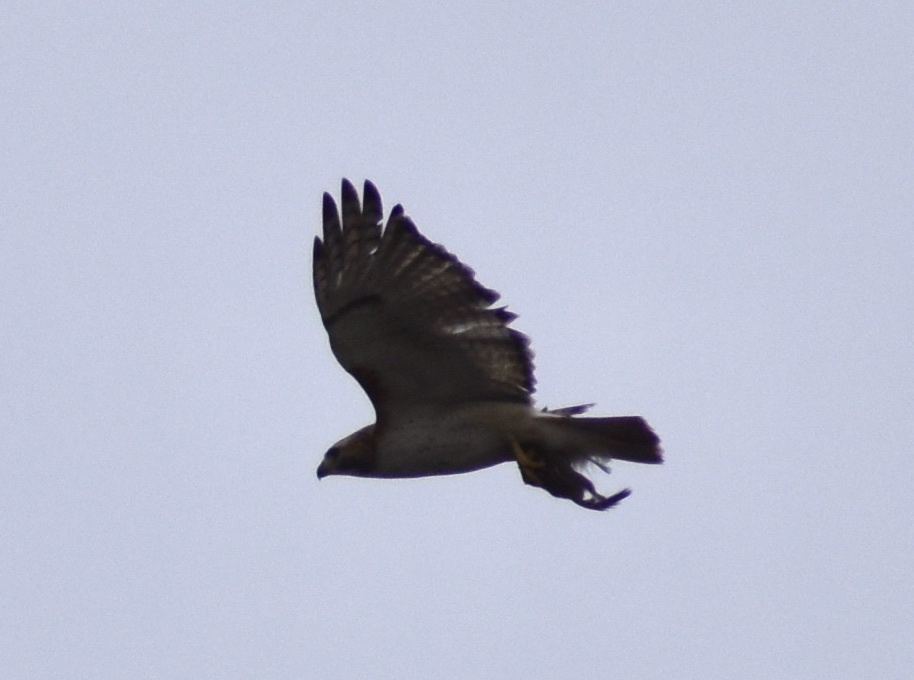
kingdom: Animalia
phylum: Chordata
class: Aves
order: Accipitriformes
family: Accipitridae
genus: Buteo
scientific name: Buteo jamaicensis
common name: Red-tailed hawk
